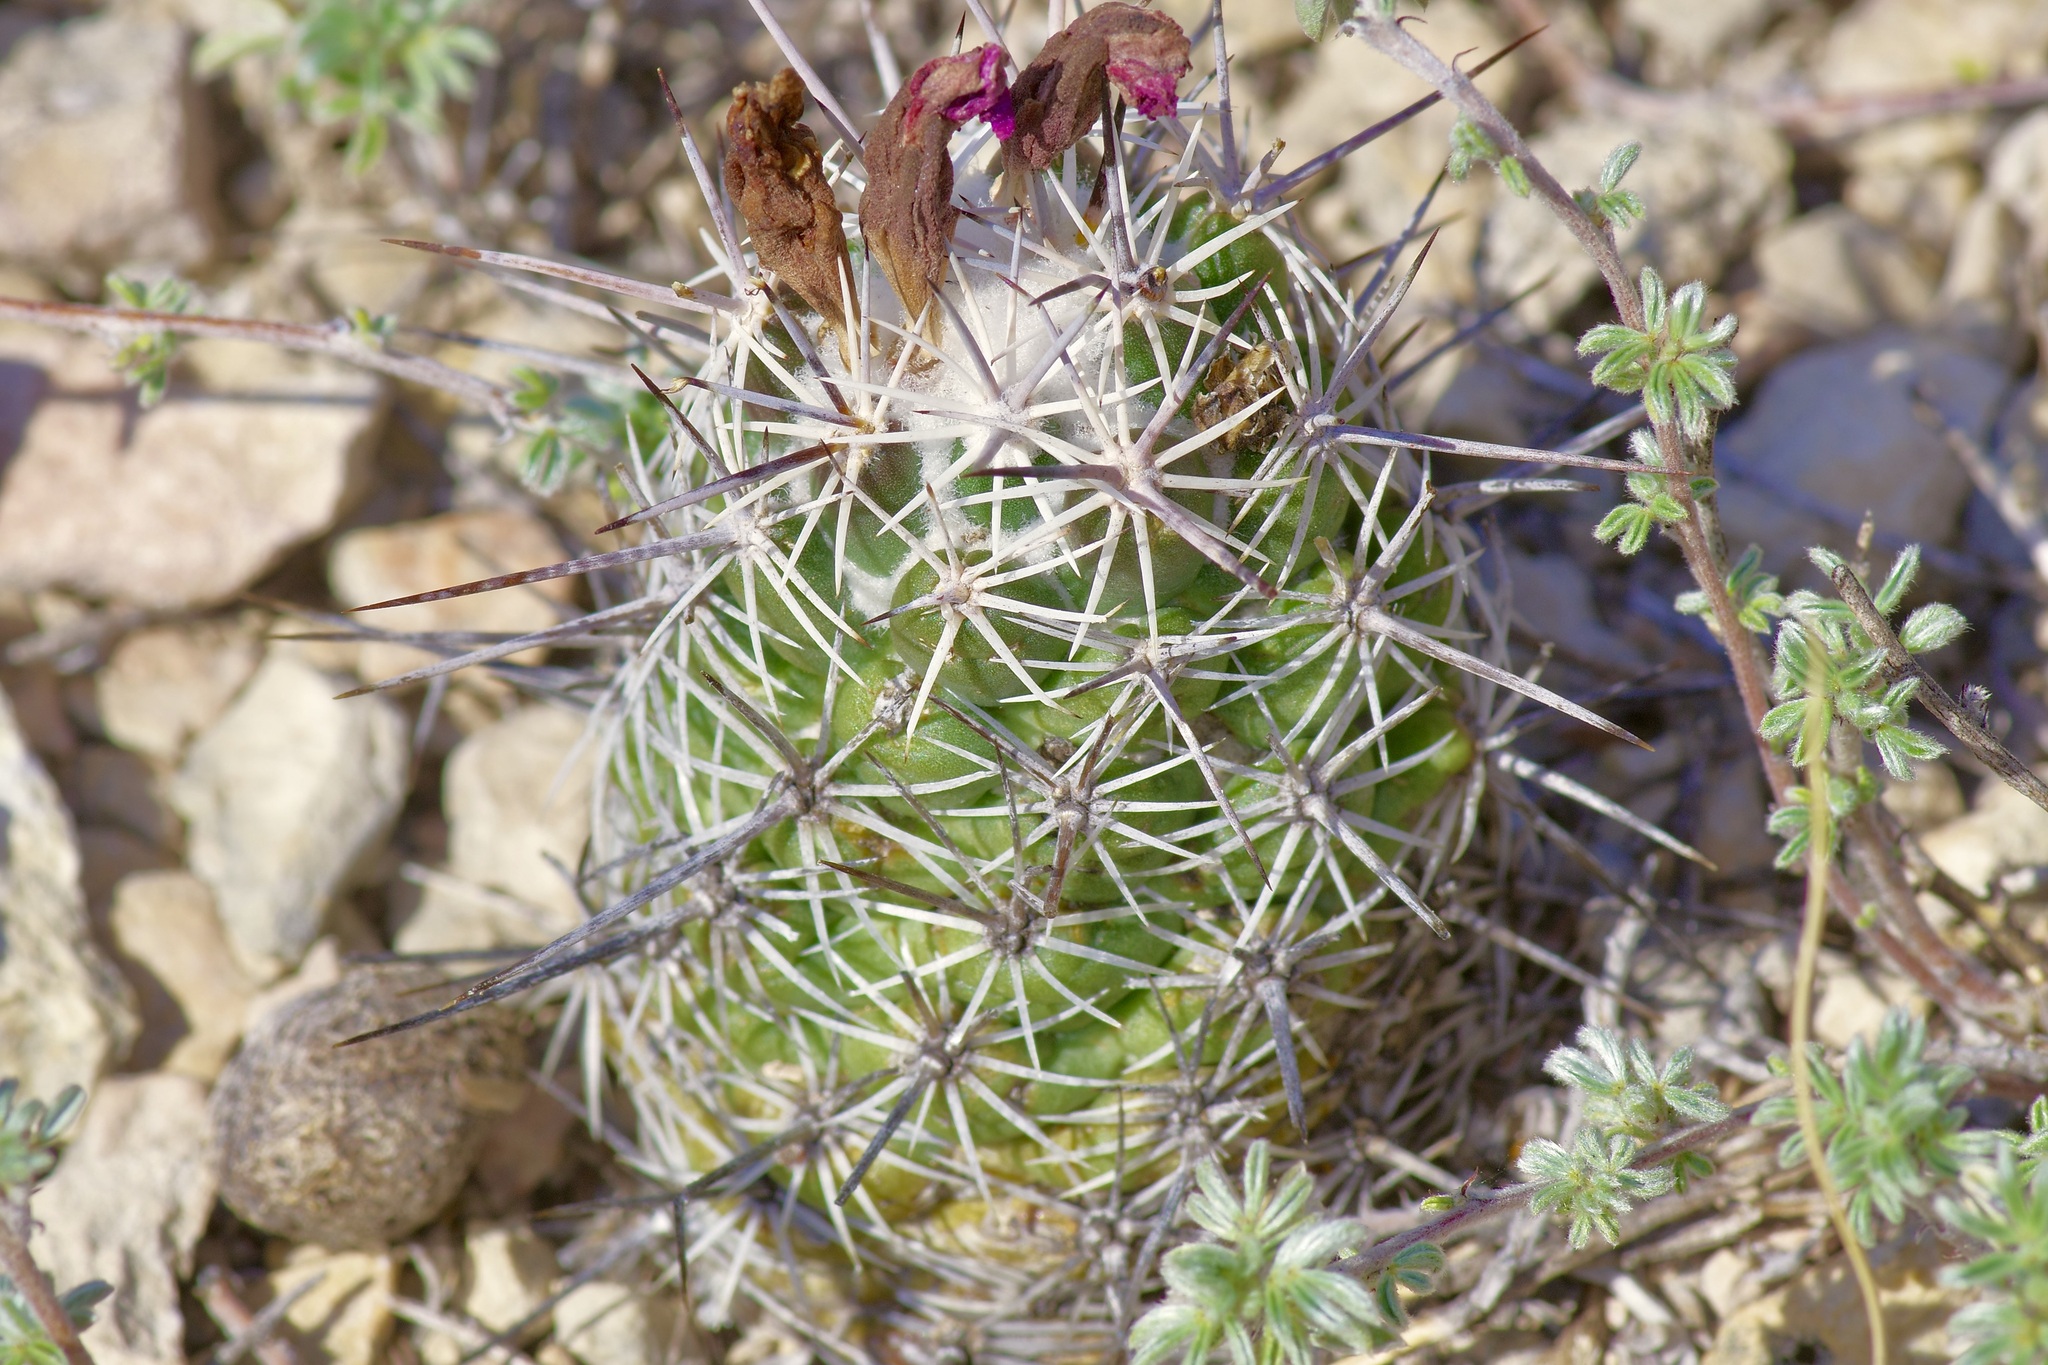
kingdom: Plantae
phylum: Tracheophyta
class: Magnoliopsida
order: Caryophyllales
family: Cactaceae
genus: Cochemiea
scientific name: Cochemiea conoidea
